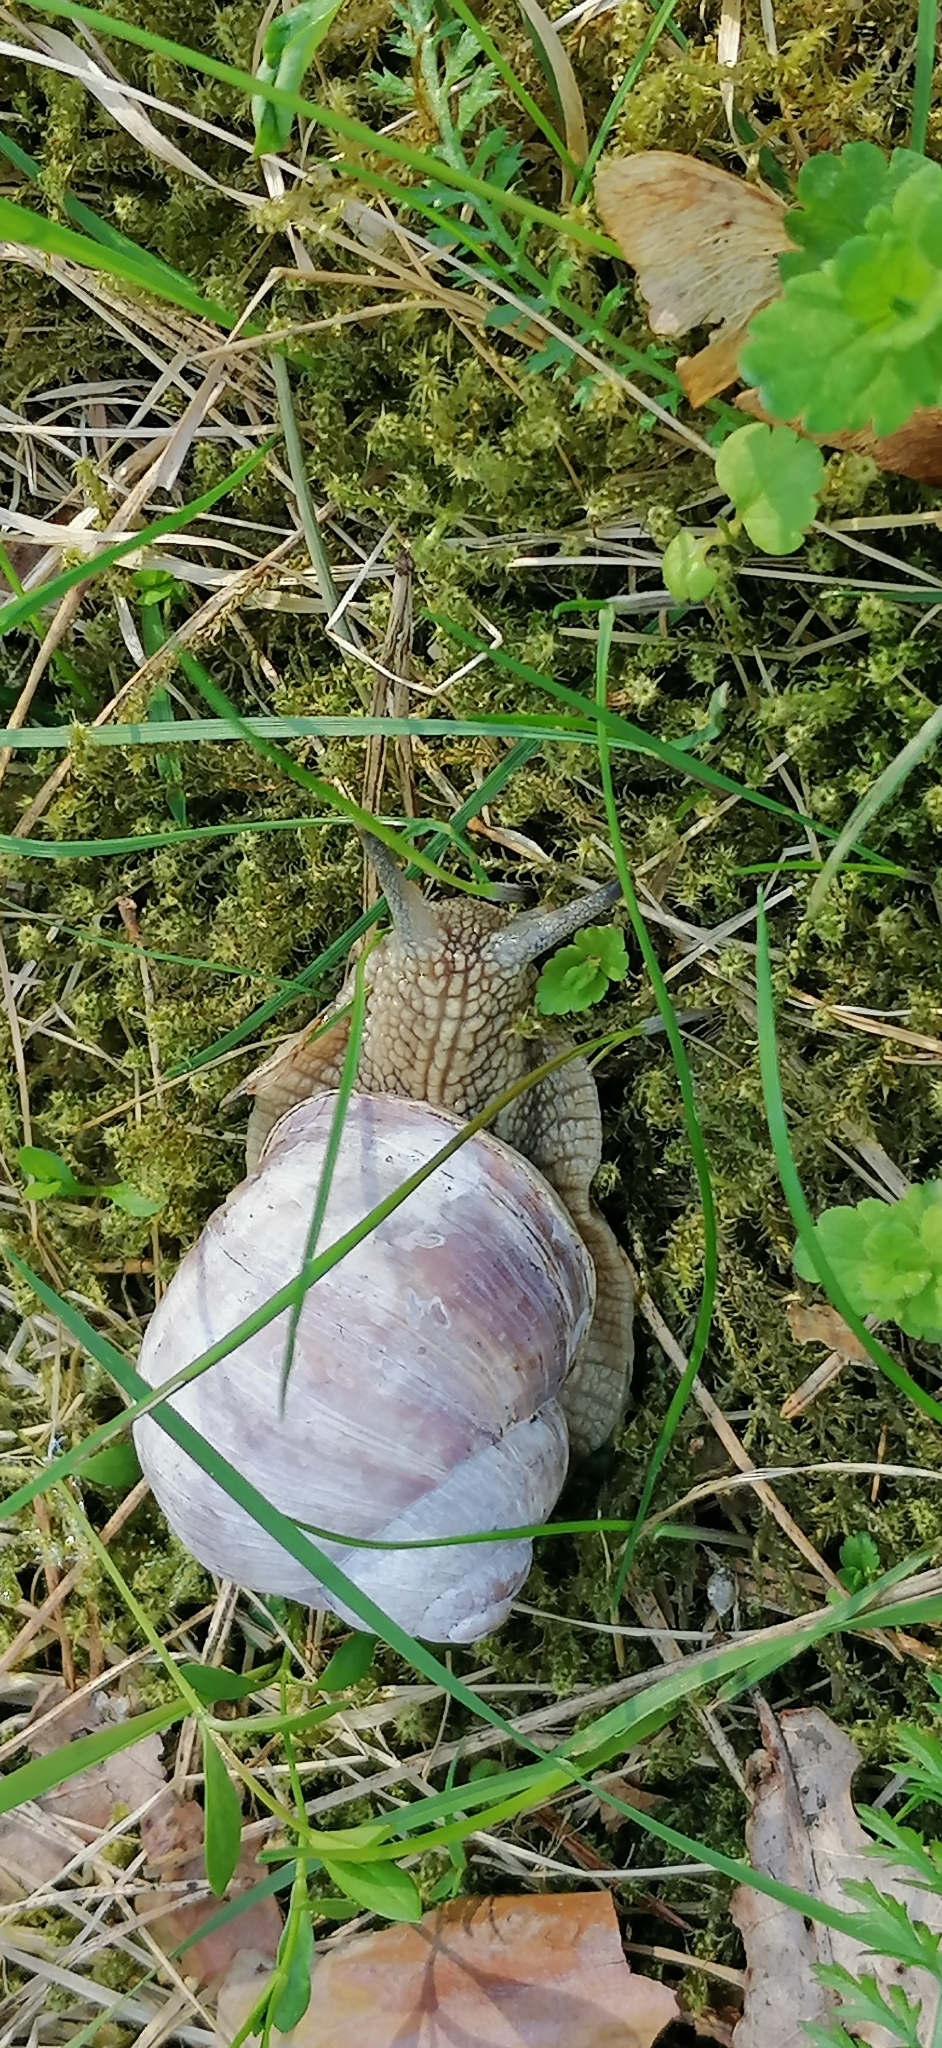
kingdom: Animalia
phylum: Mollusca
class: Gastropoda
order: Stylommatophora
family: Helicidae
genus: Helix
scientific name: Helix pomatia
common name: Roman snail
